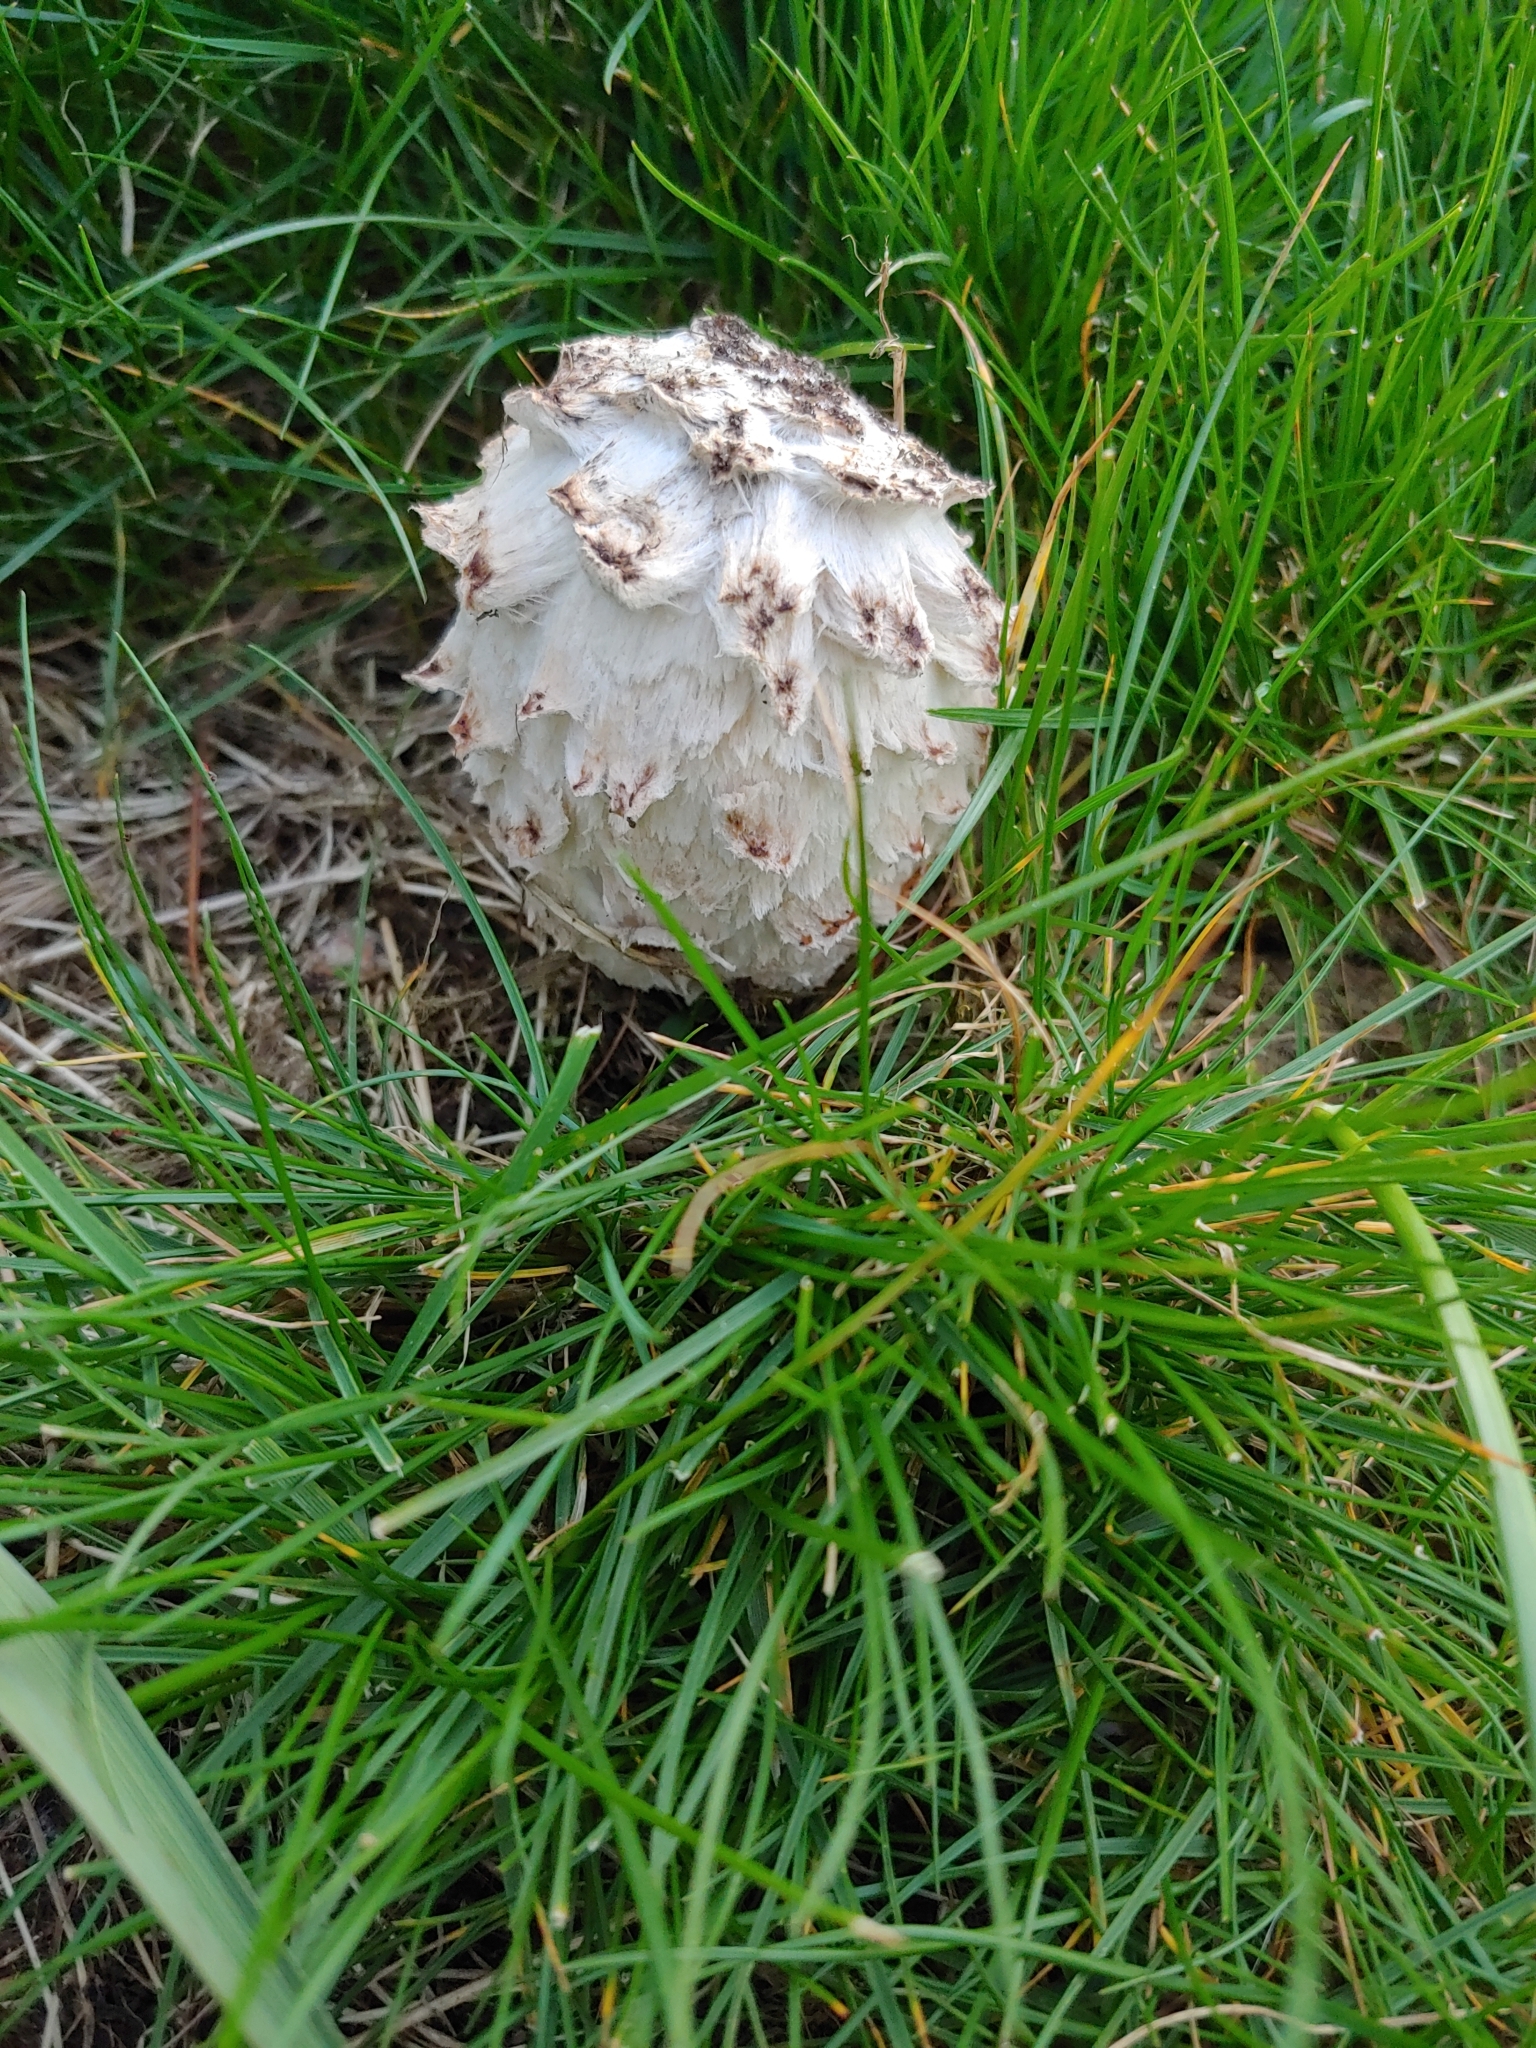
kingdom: Fungi
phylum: Basidiomycota
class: Agaricomycetes
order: Agaricales
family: Agaricaceae
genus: Coprinus
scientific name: Coprinus comatus
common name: Lawyer's wig
